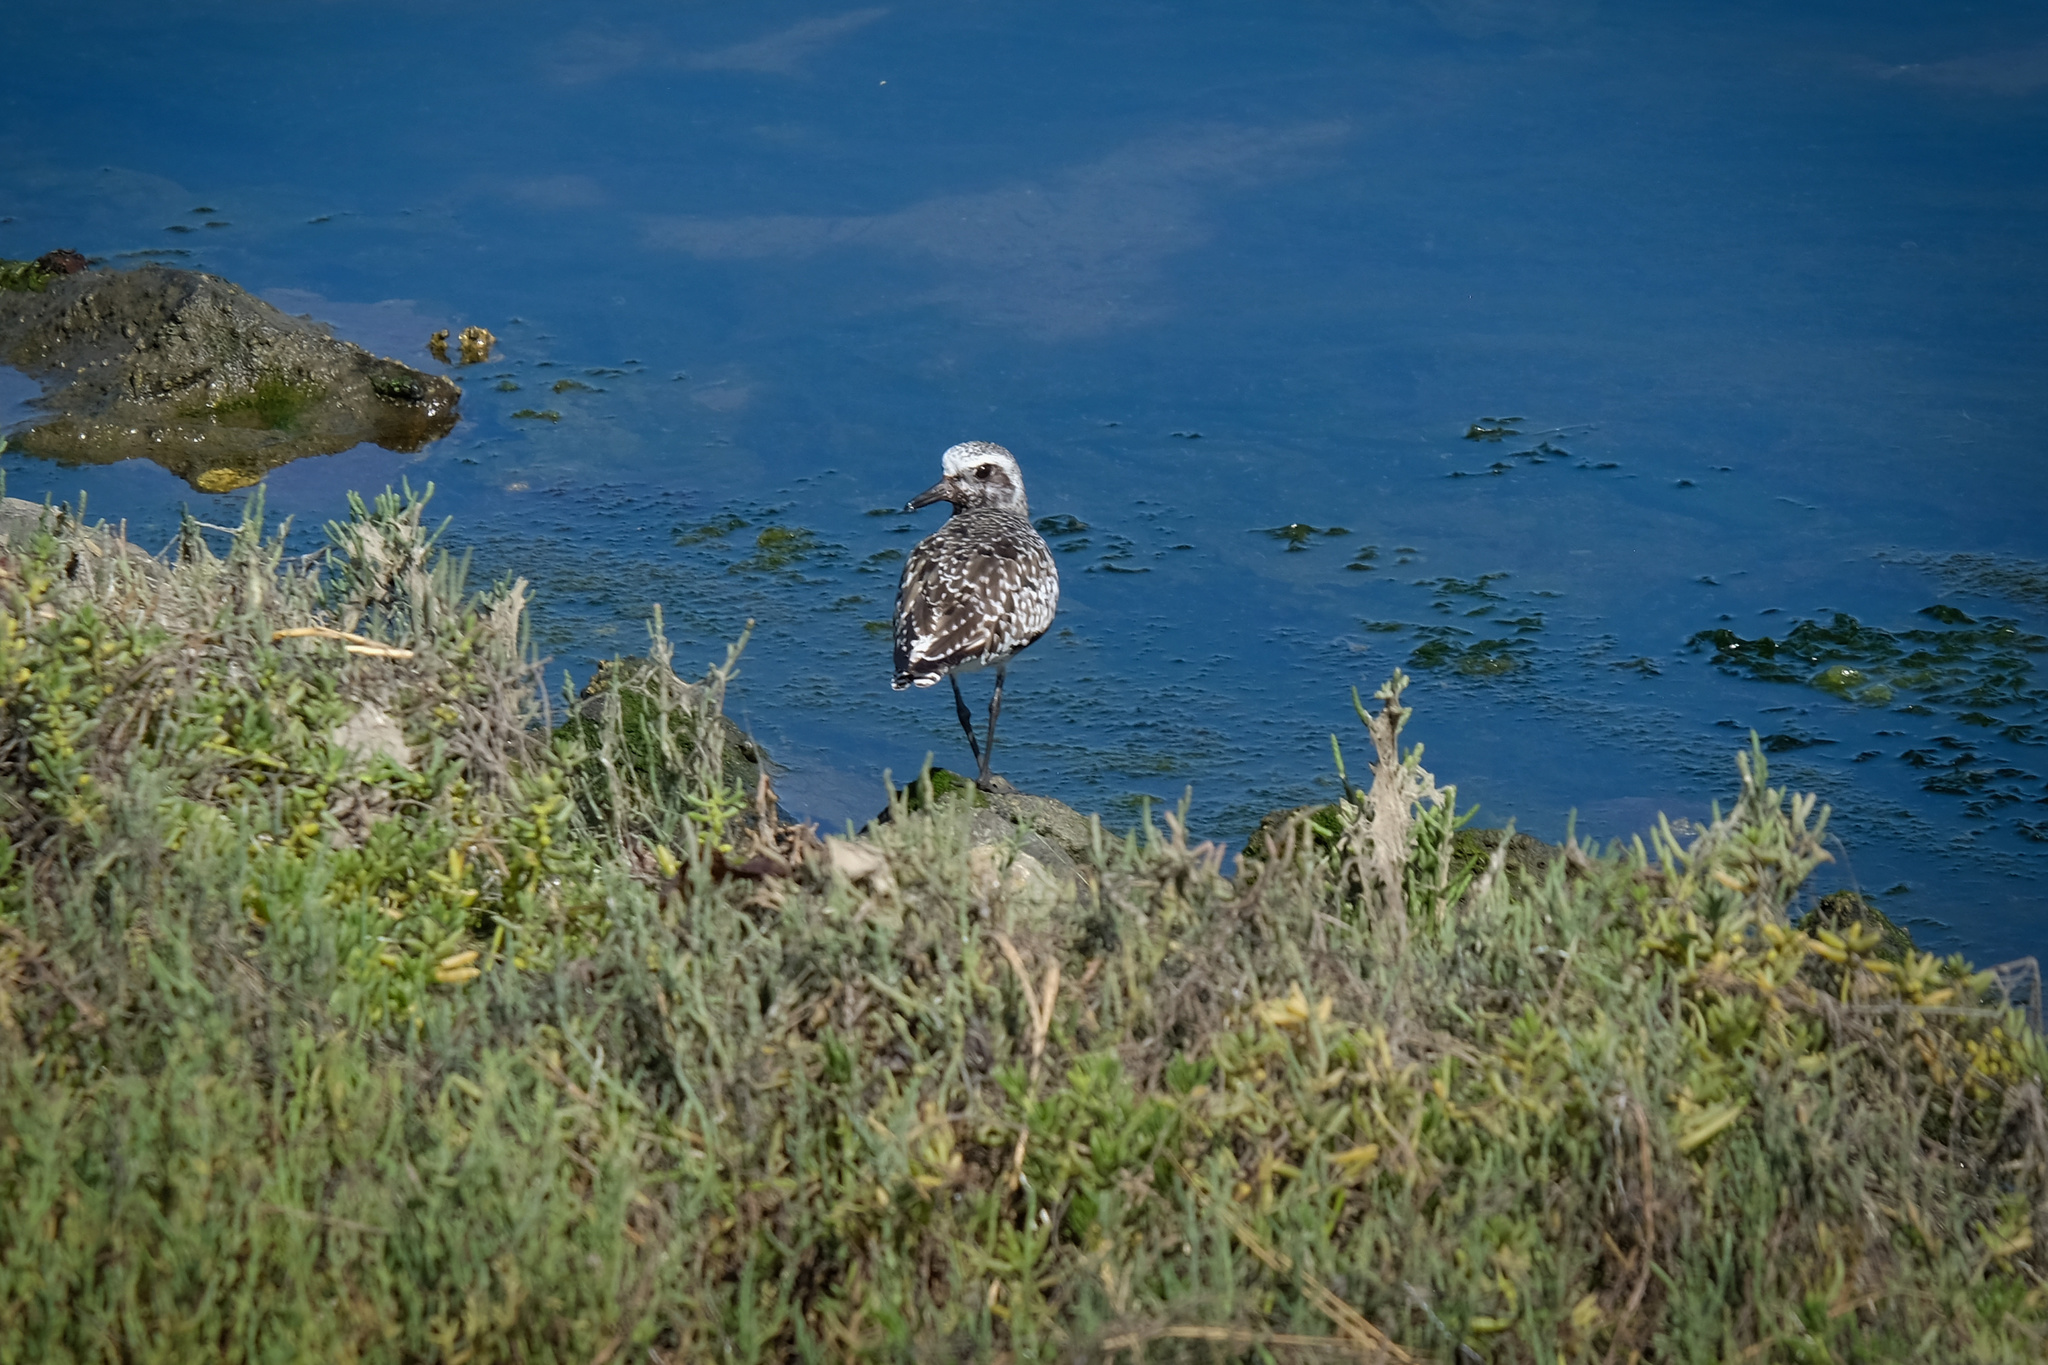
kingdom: Animalia
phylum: Chordata
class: Aves
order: Charadriiformes
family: Charadriidae
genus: Pluvialis
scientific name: Pluvialis squatarola
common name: Grey plover
